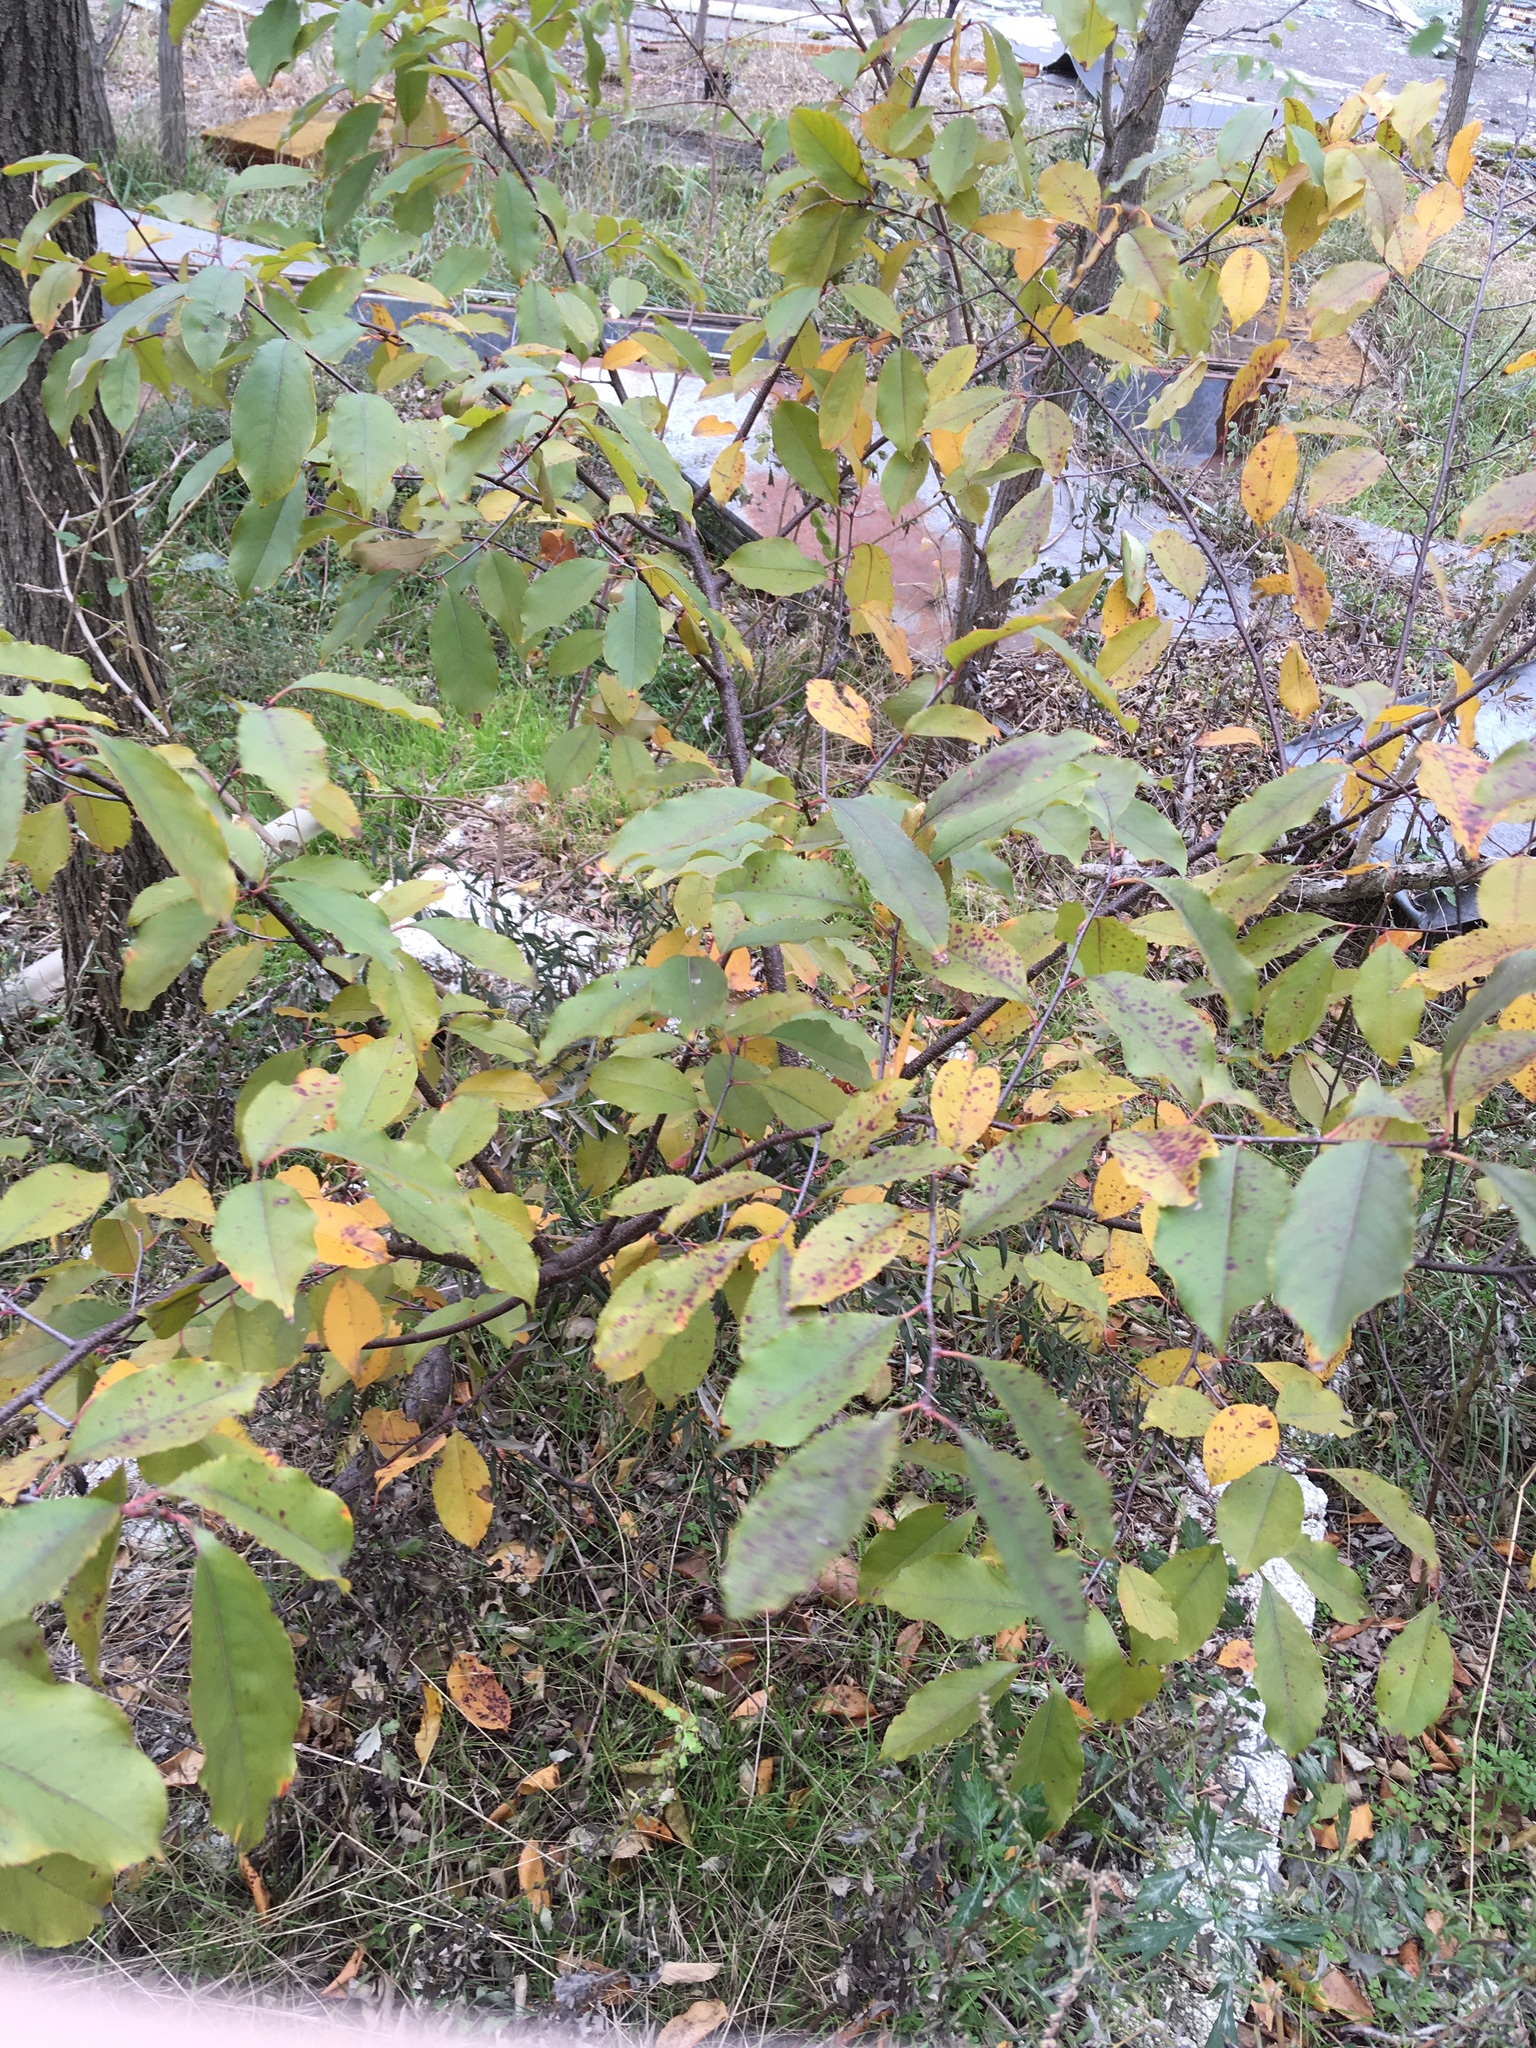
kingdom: Plantae
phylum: Tracheophyta
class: Magnoliopsida
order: Rosales
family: Rosaceae
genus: Prunus
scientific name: Prunus serotina
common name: Black cherry
